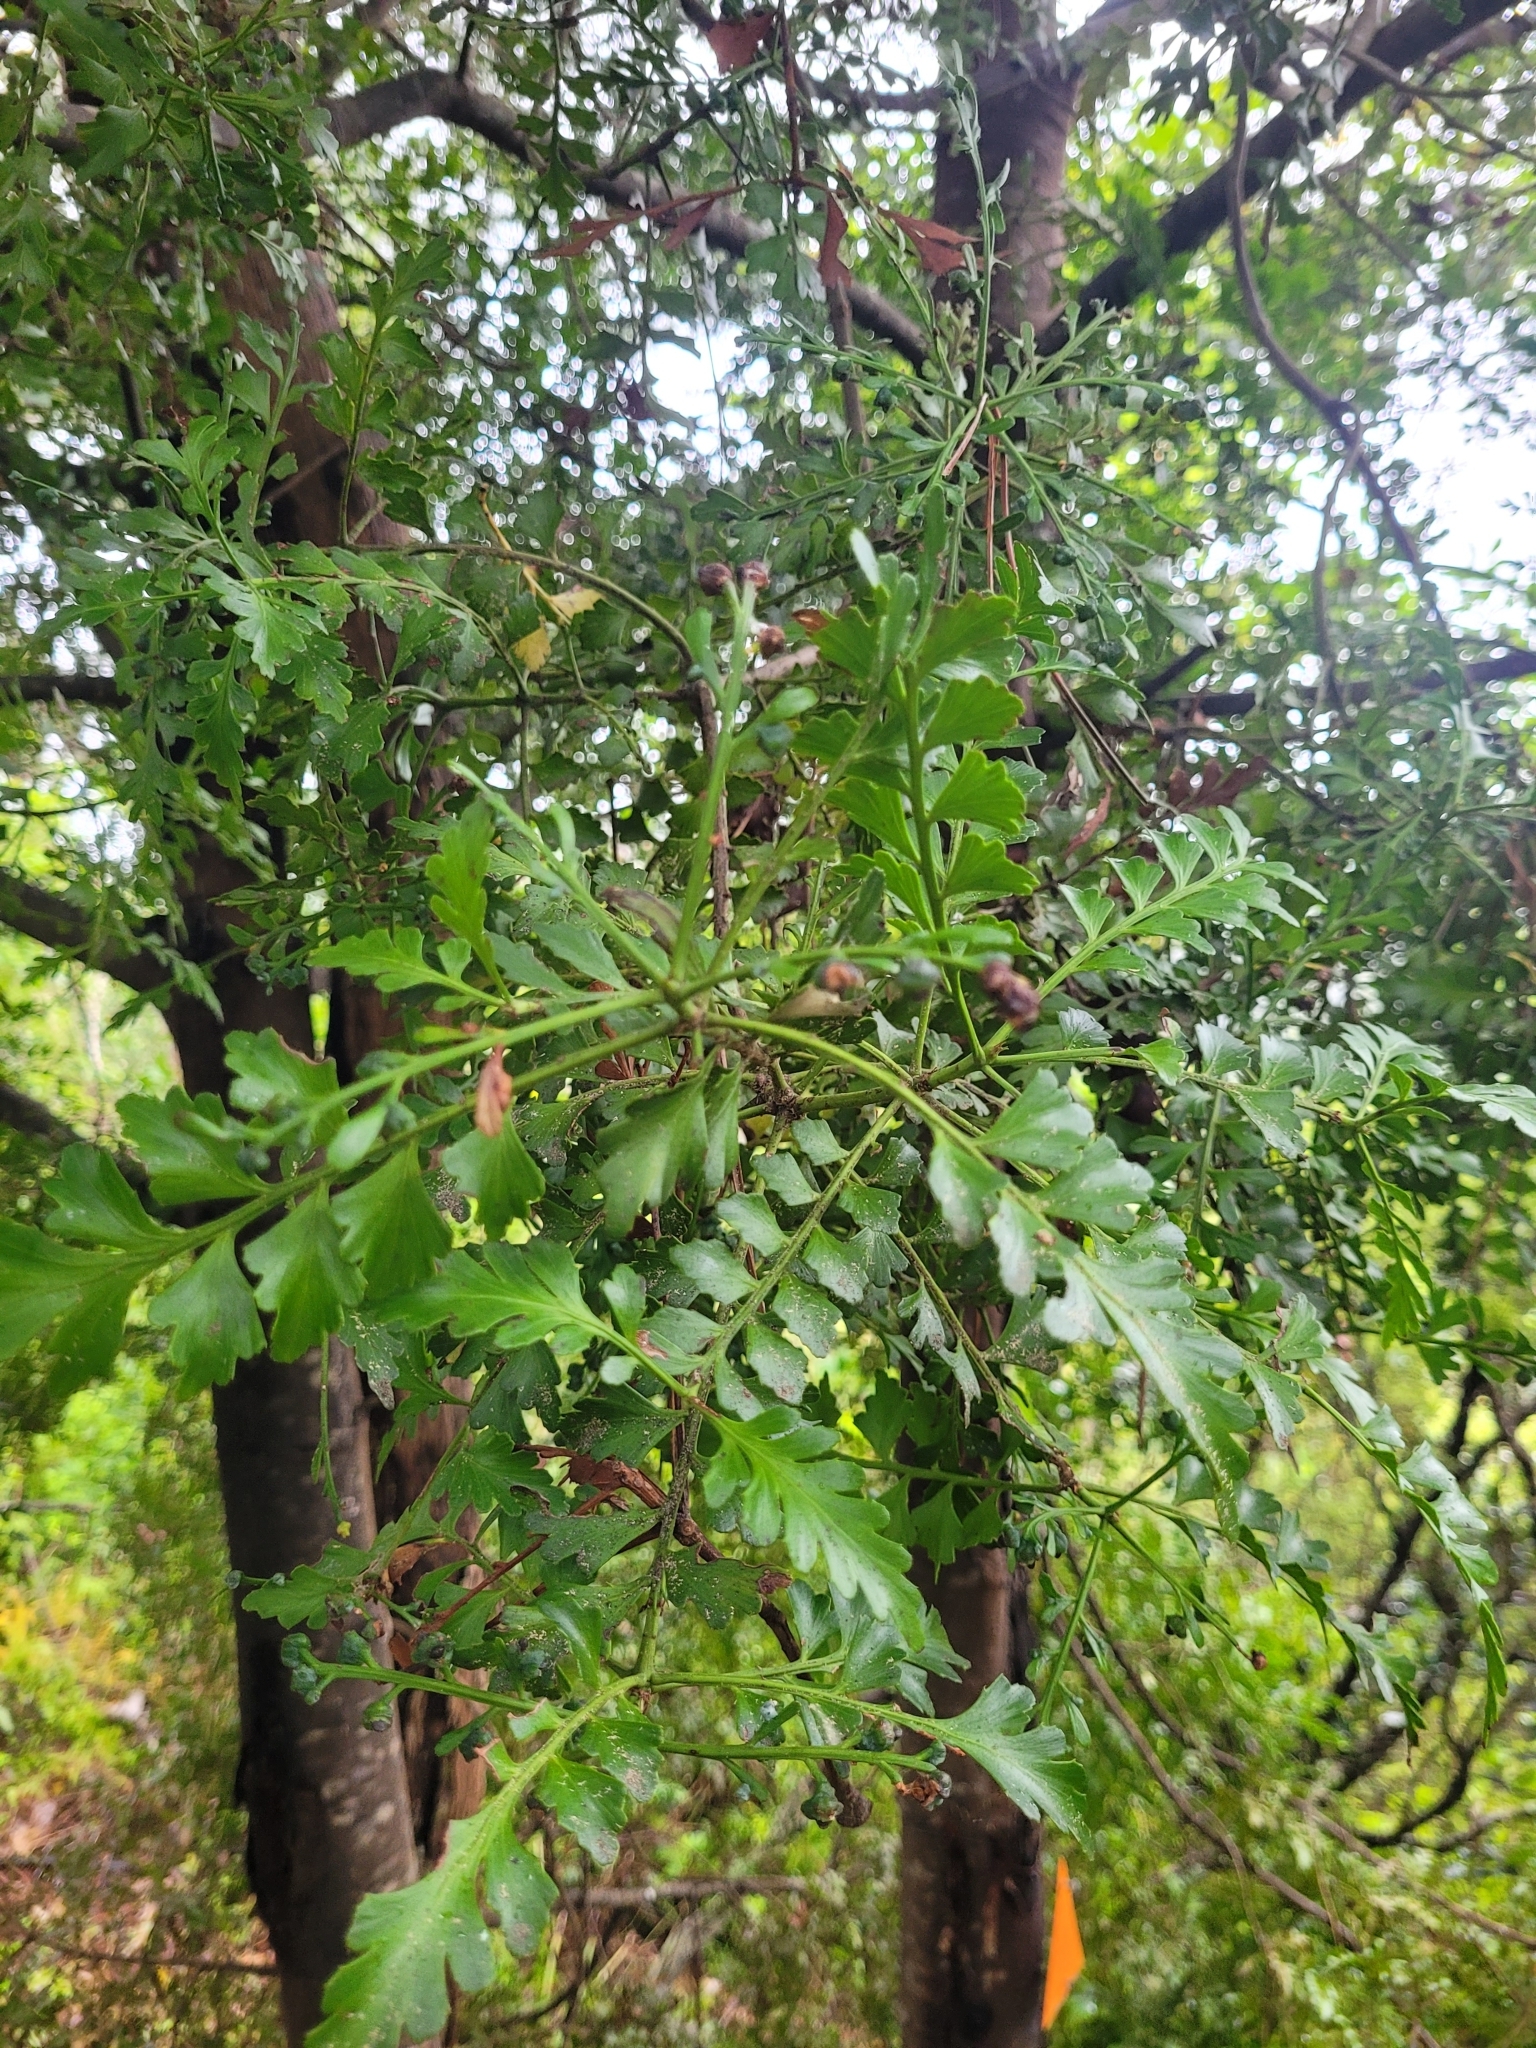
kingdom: Plantae
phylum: Tracheophyta
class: Pinopsida
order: Pinales
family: Phyllocladaceae
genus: Phyllocladus
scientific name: Phyllocladus trichomanoides
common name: Celery pine
